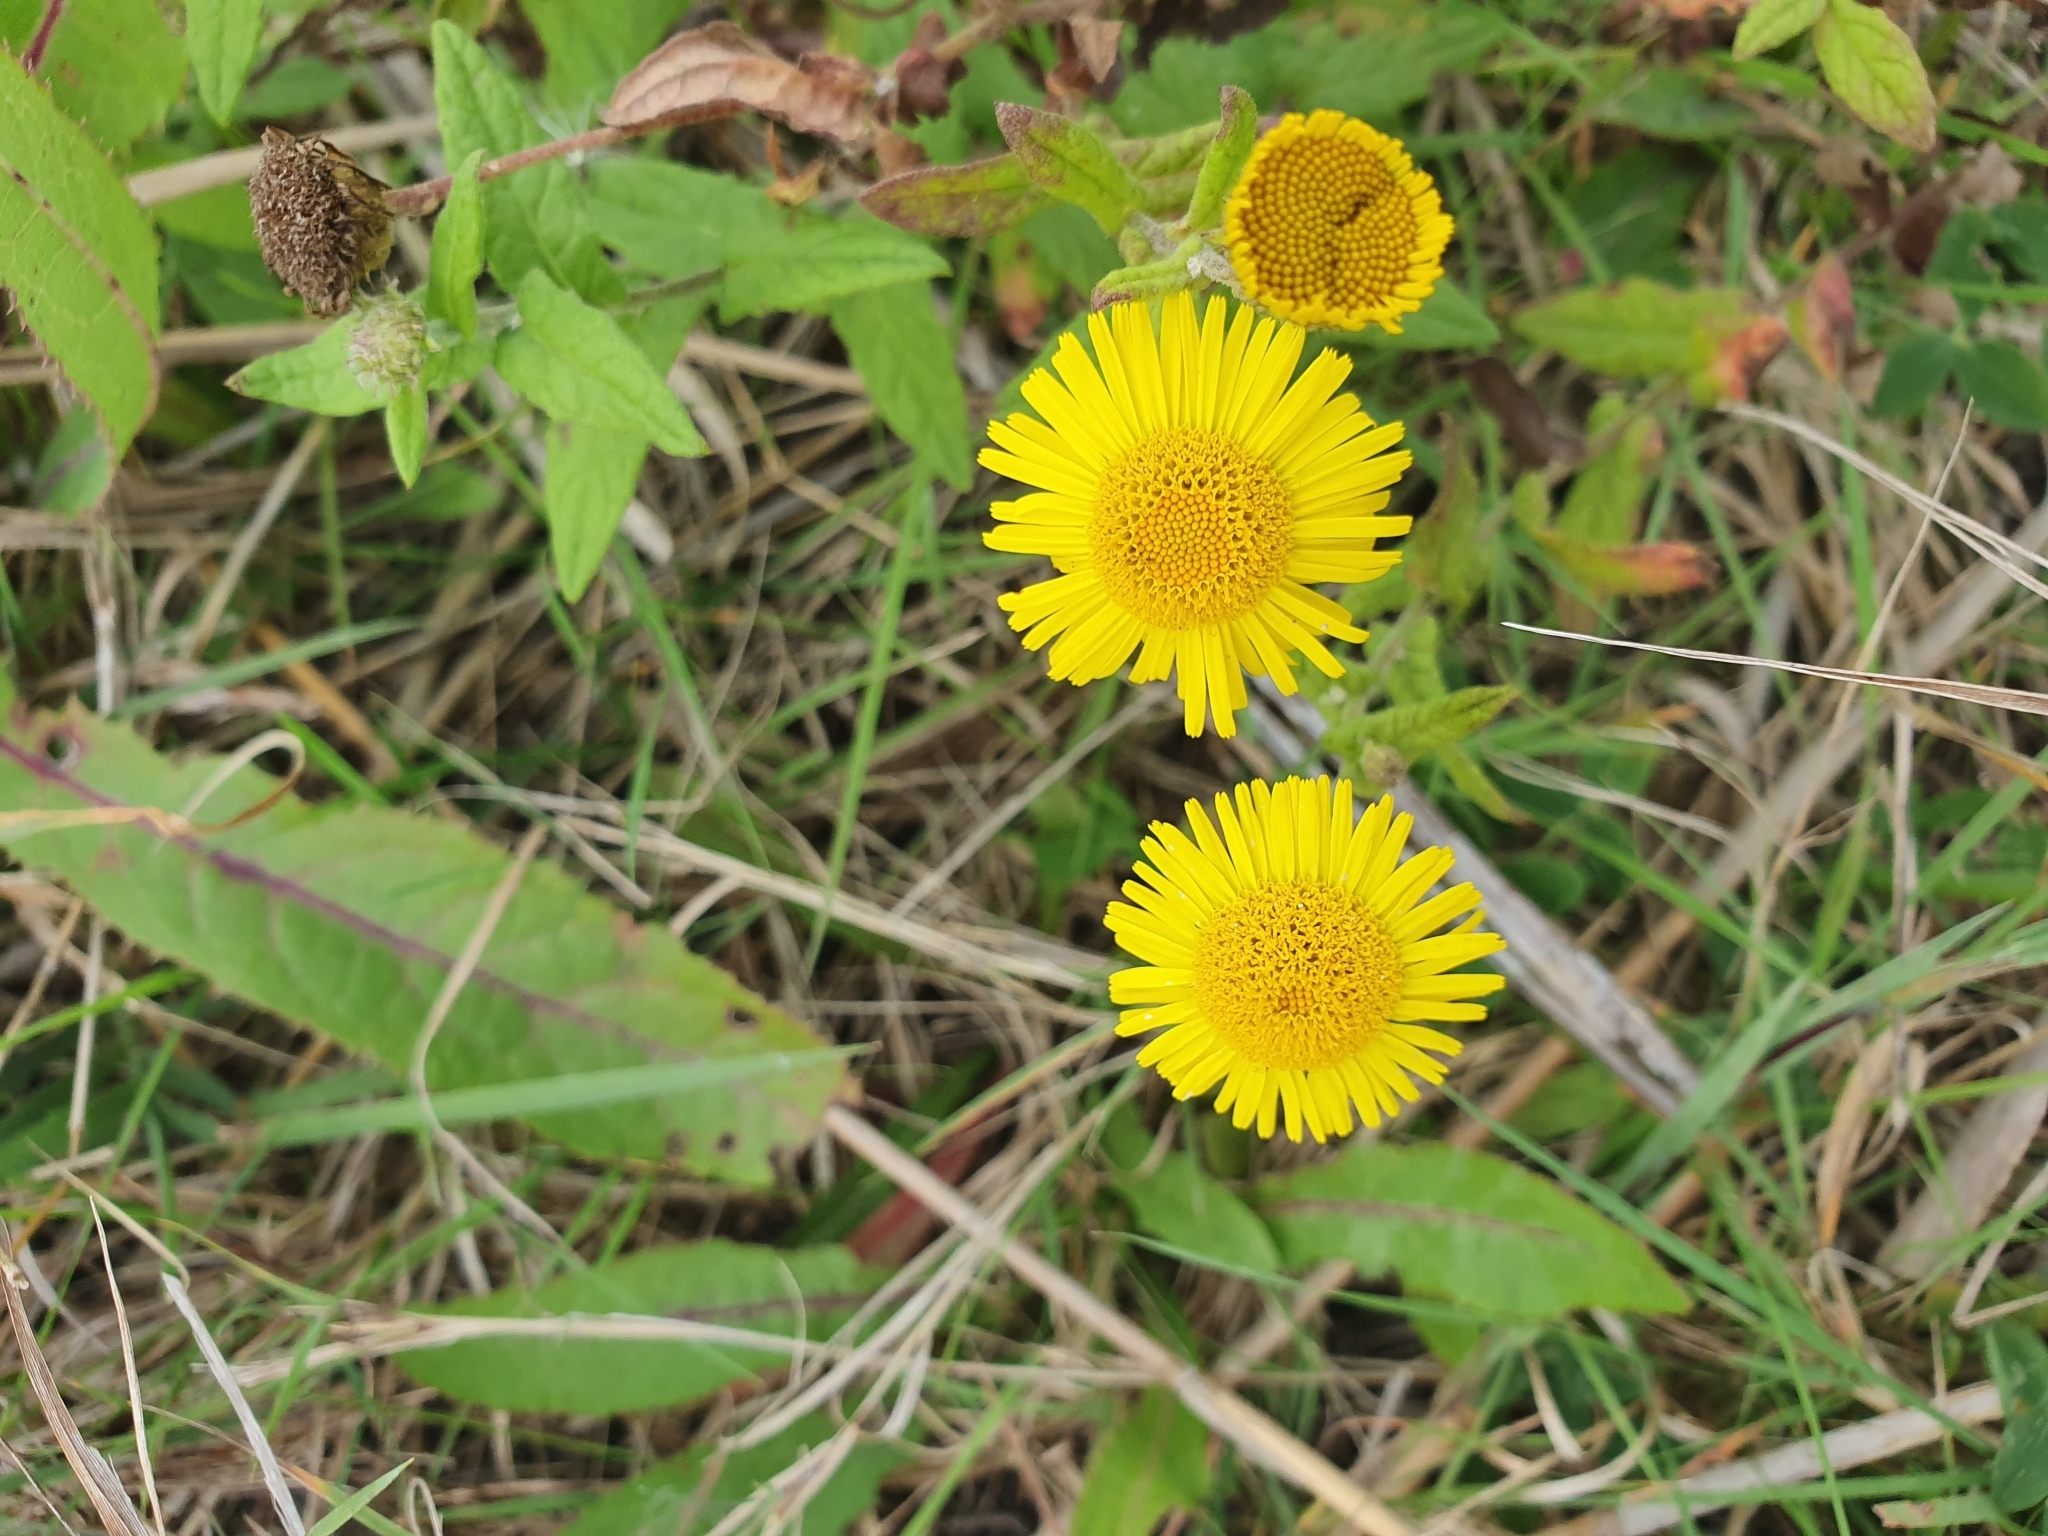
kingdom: Plantae
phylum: Tracheophyta
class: Magnoliopsida
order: Asterales
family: Asteraceae
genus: Pulicaria
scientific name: Pulicaria dysenterica
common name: Common fleabane
